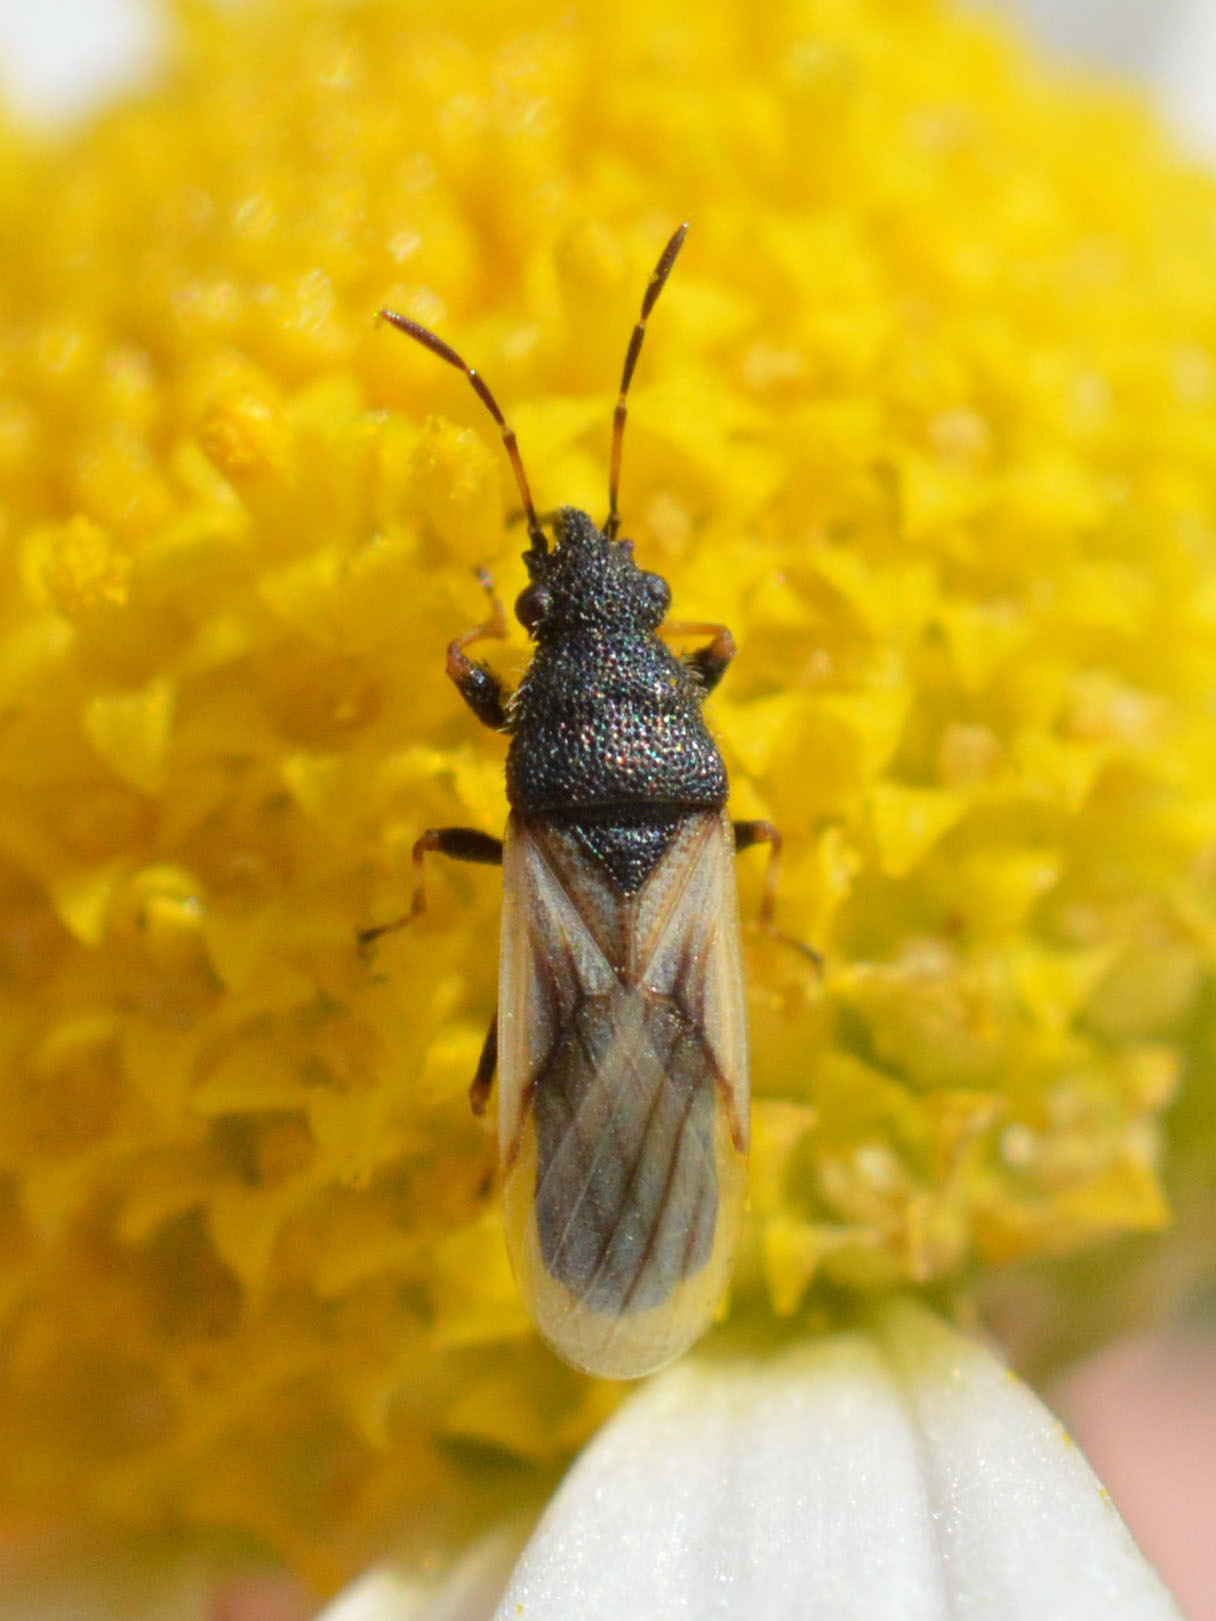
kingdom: Animalia
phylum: Arthropoda
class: Insecta
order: Hemiptera
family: Oxycarenidae
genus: Metopoplax
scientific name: Metopoplax origani
